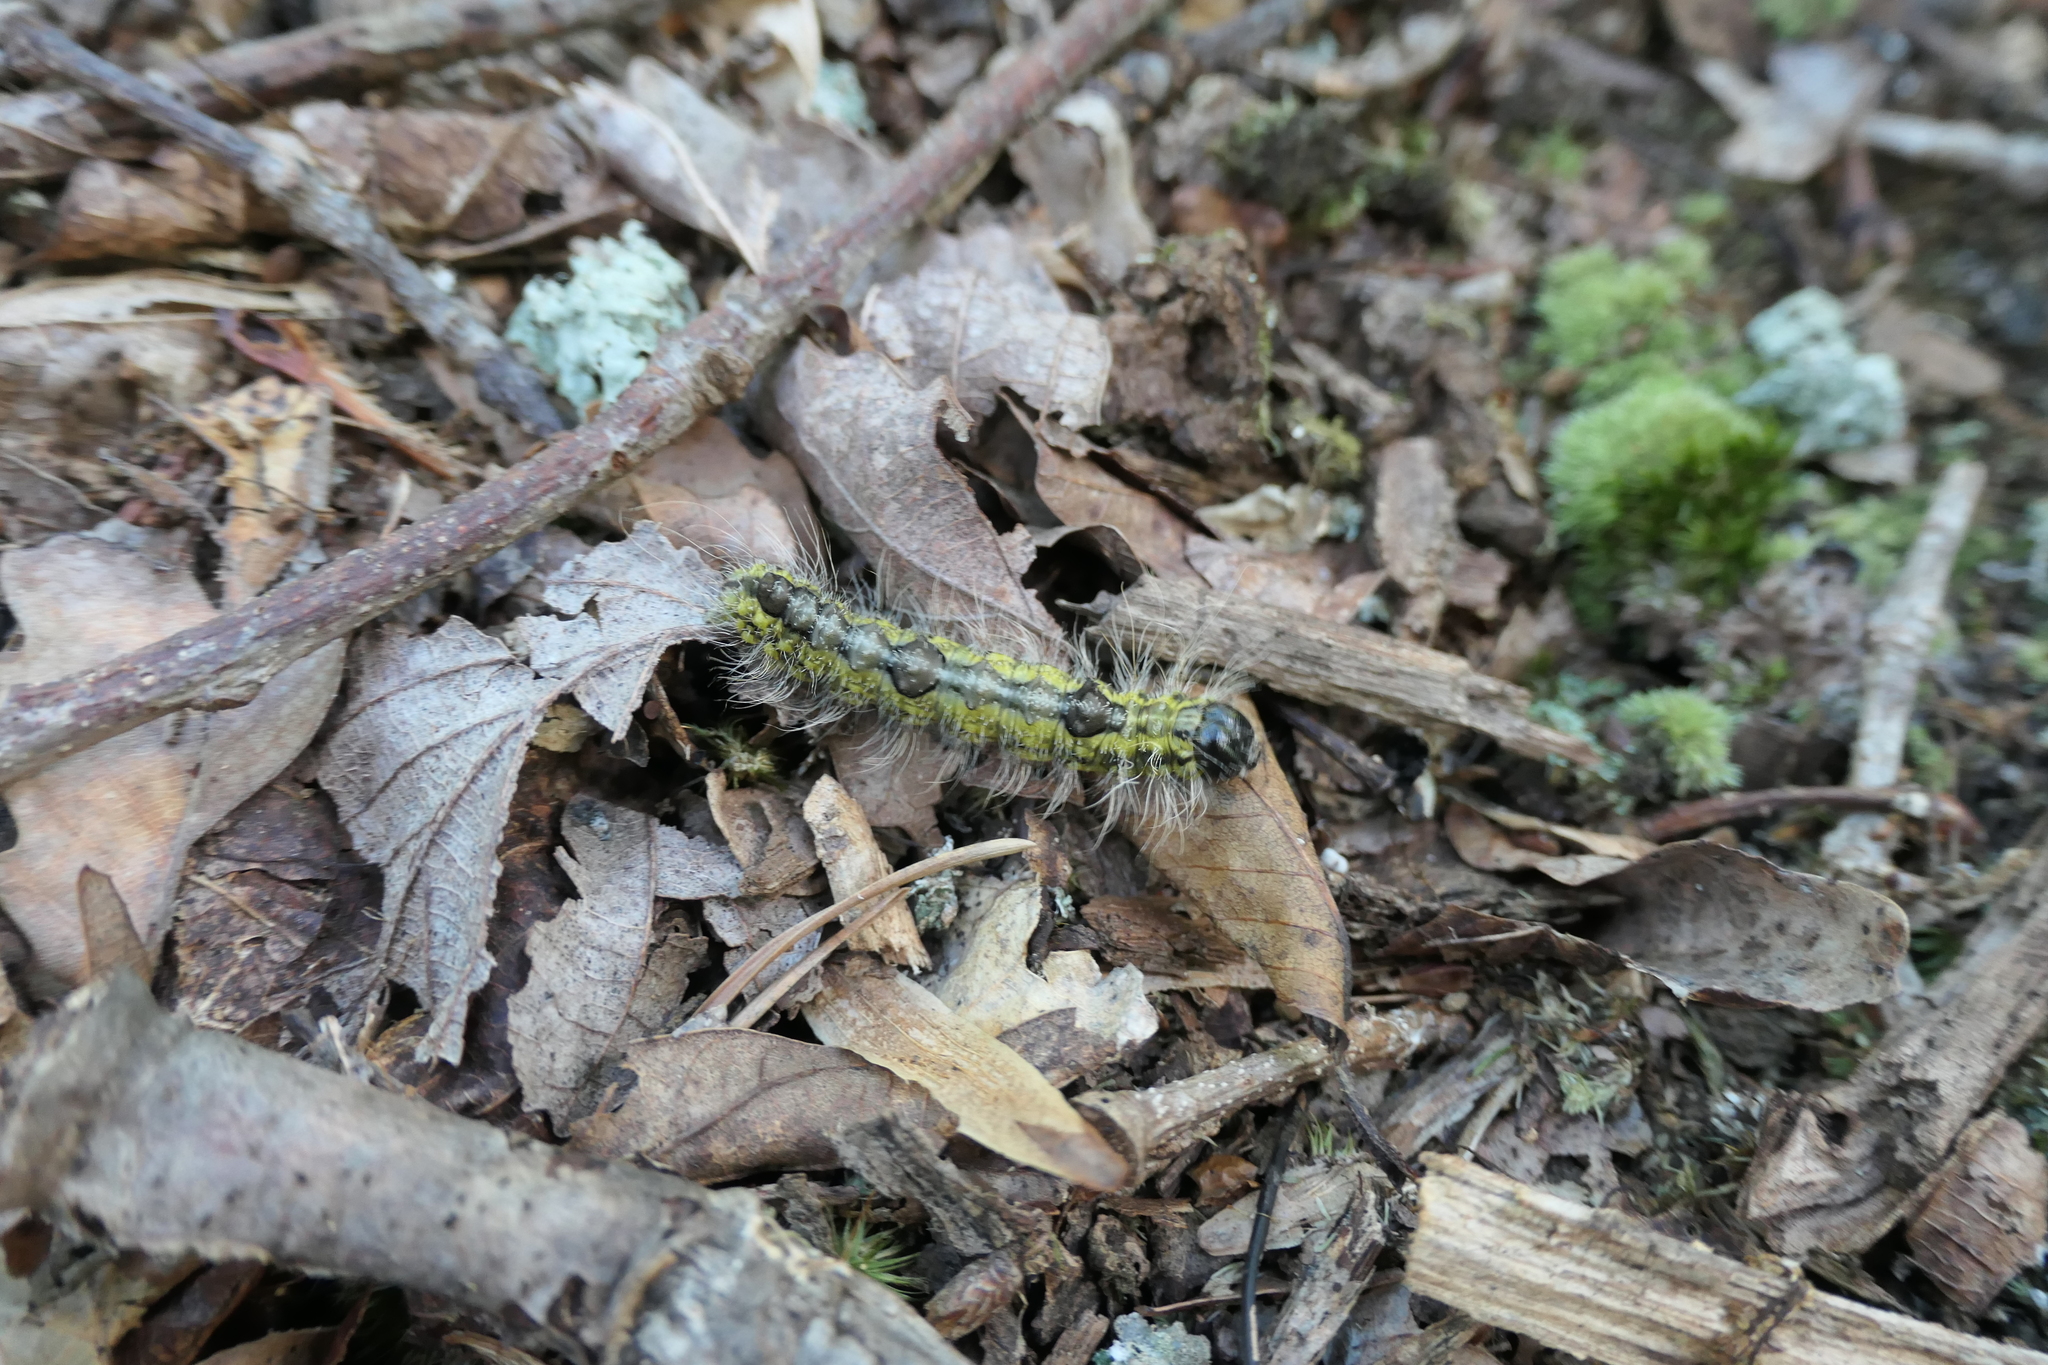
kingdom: Animalia
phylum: Arthropoda
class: Insecta
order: Lepidoptera
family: Noctuidae
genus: Acronicta
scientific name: Acronicta morula
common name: Ochre dagger
